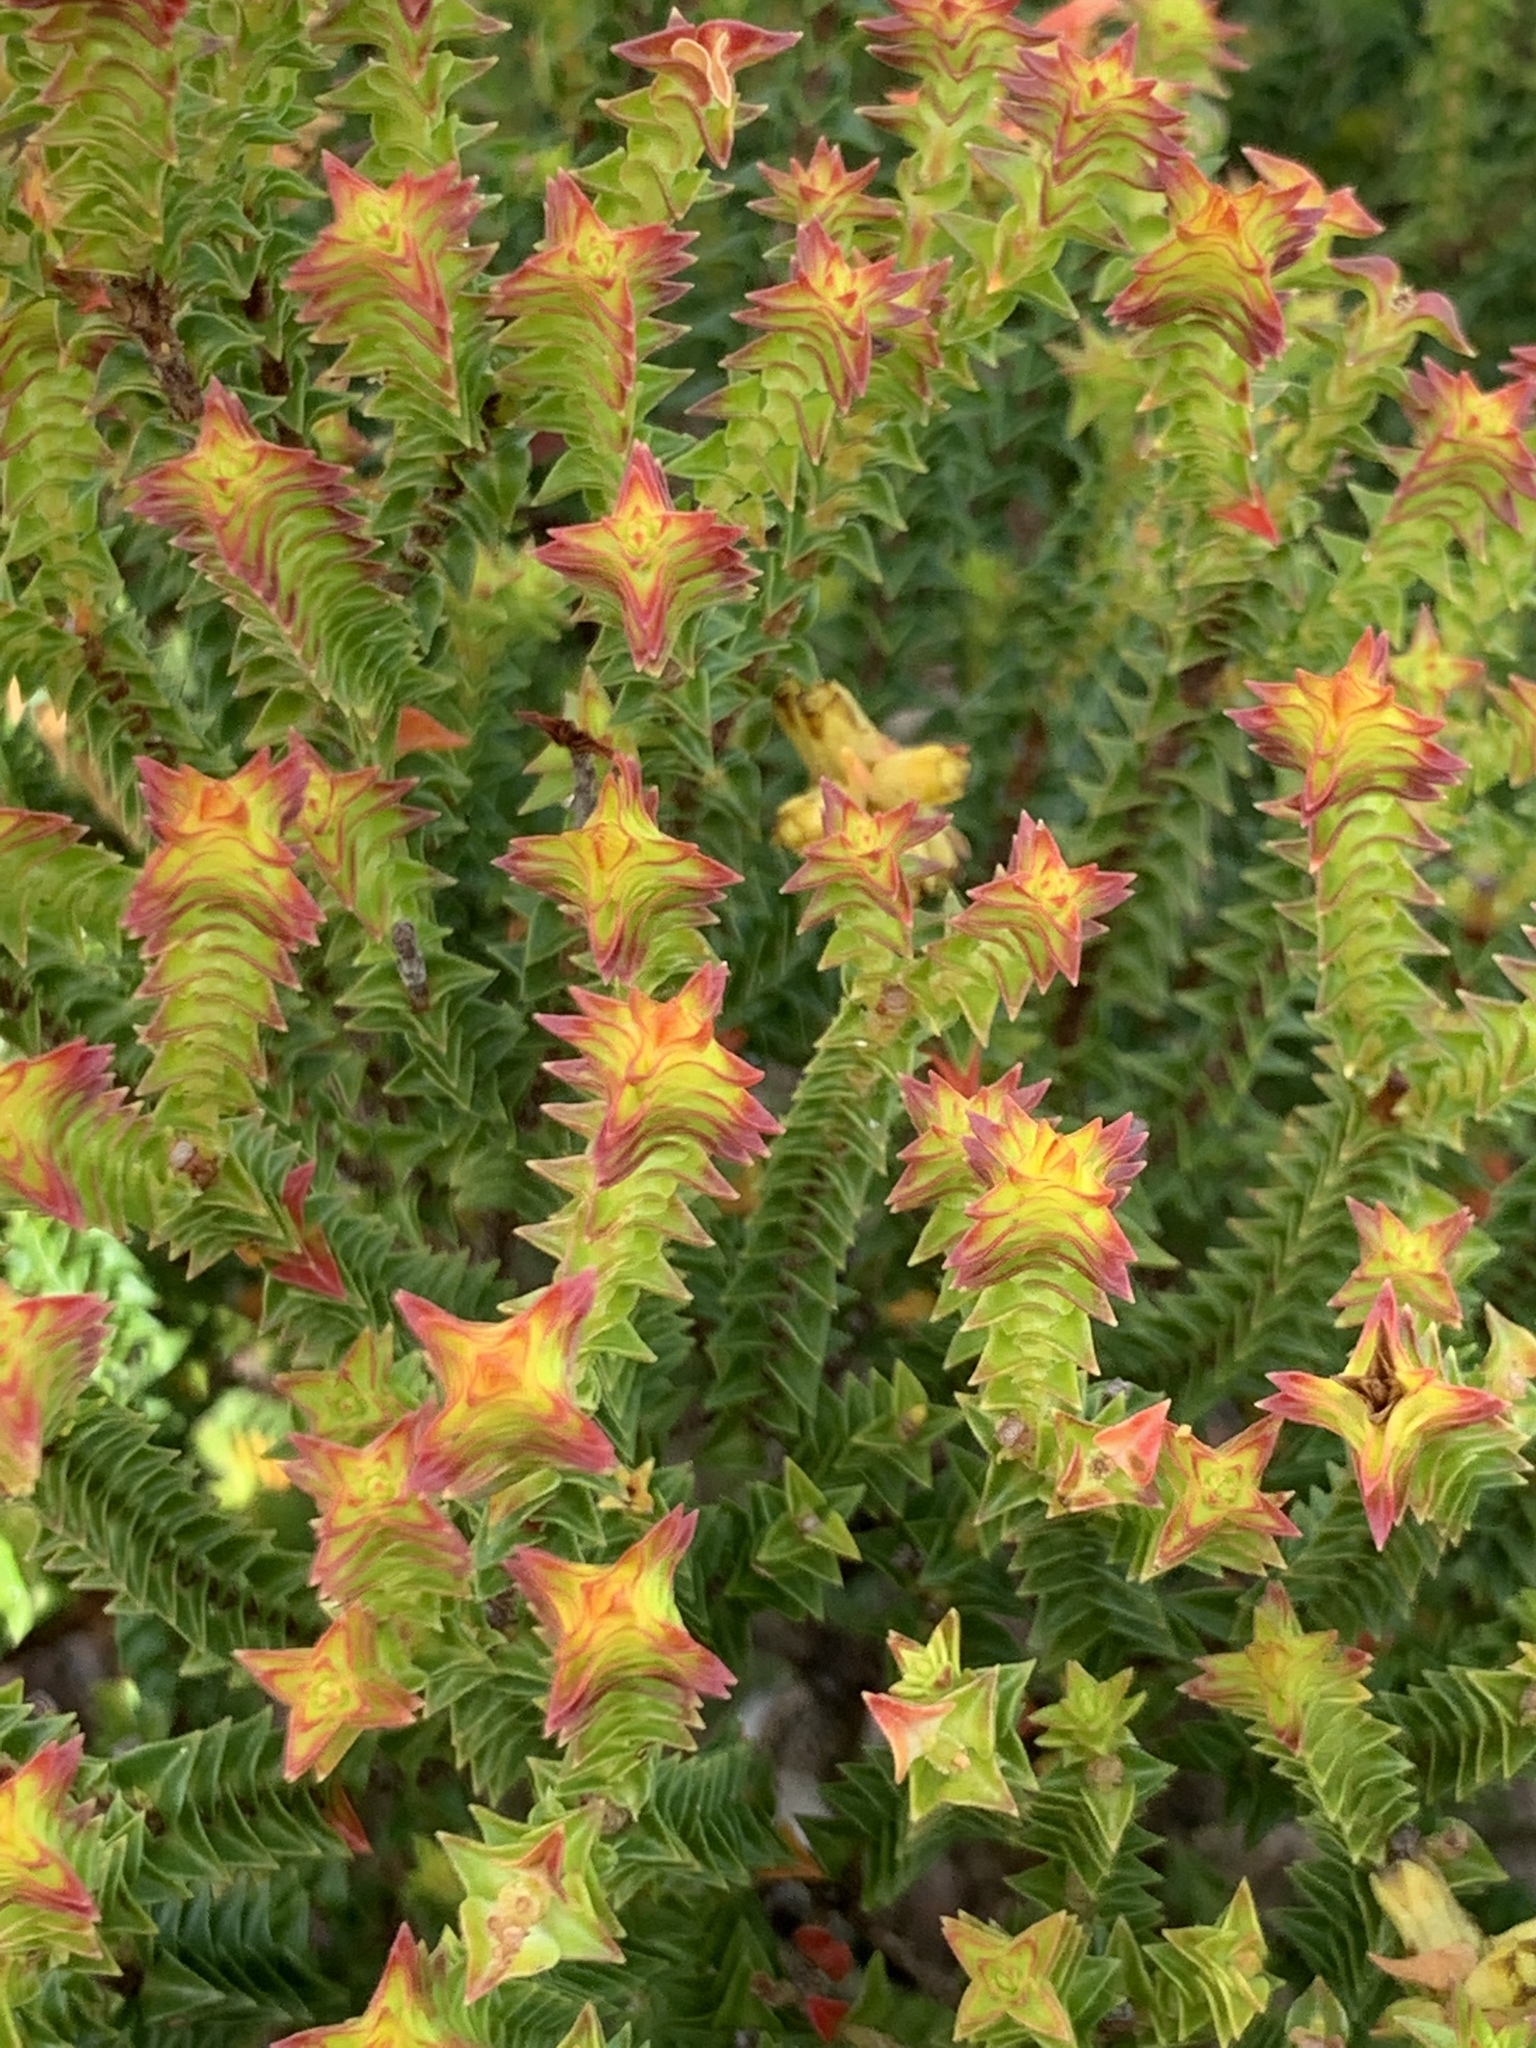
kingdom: Plantae
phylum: Tracheophyta
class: Magnoliopsida
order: Myrtales
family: Penaeaceae
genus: Penaea
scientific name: Penaea mucronata
